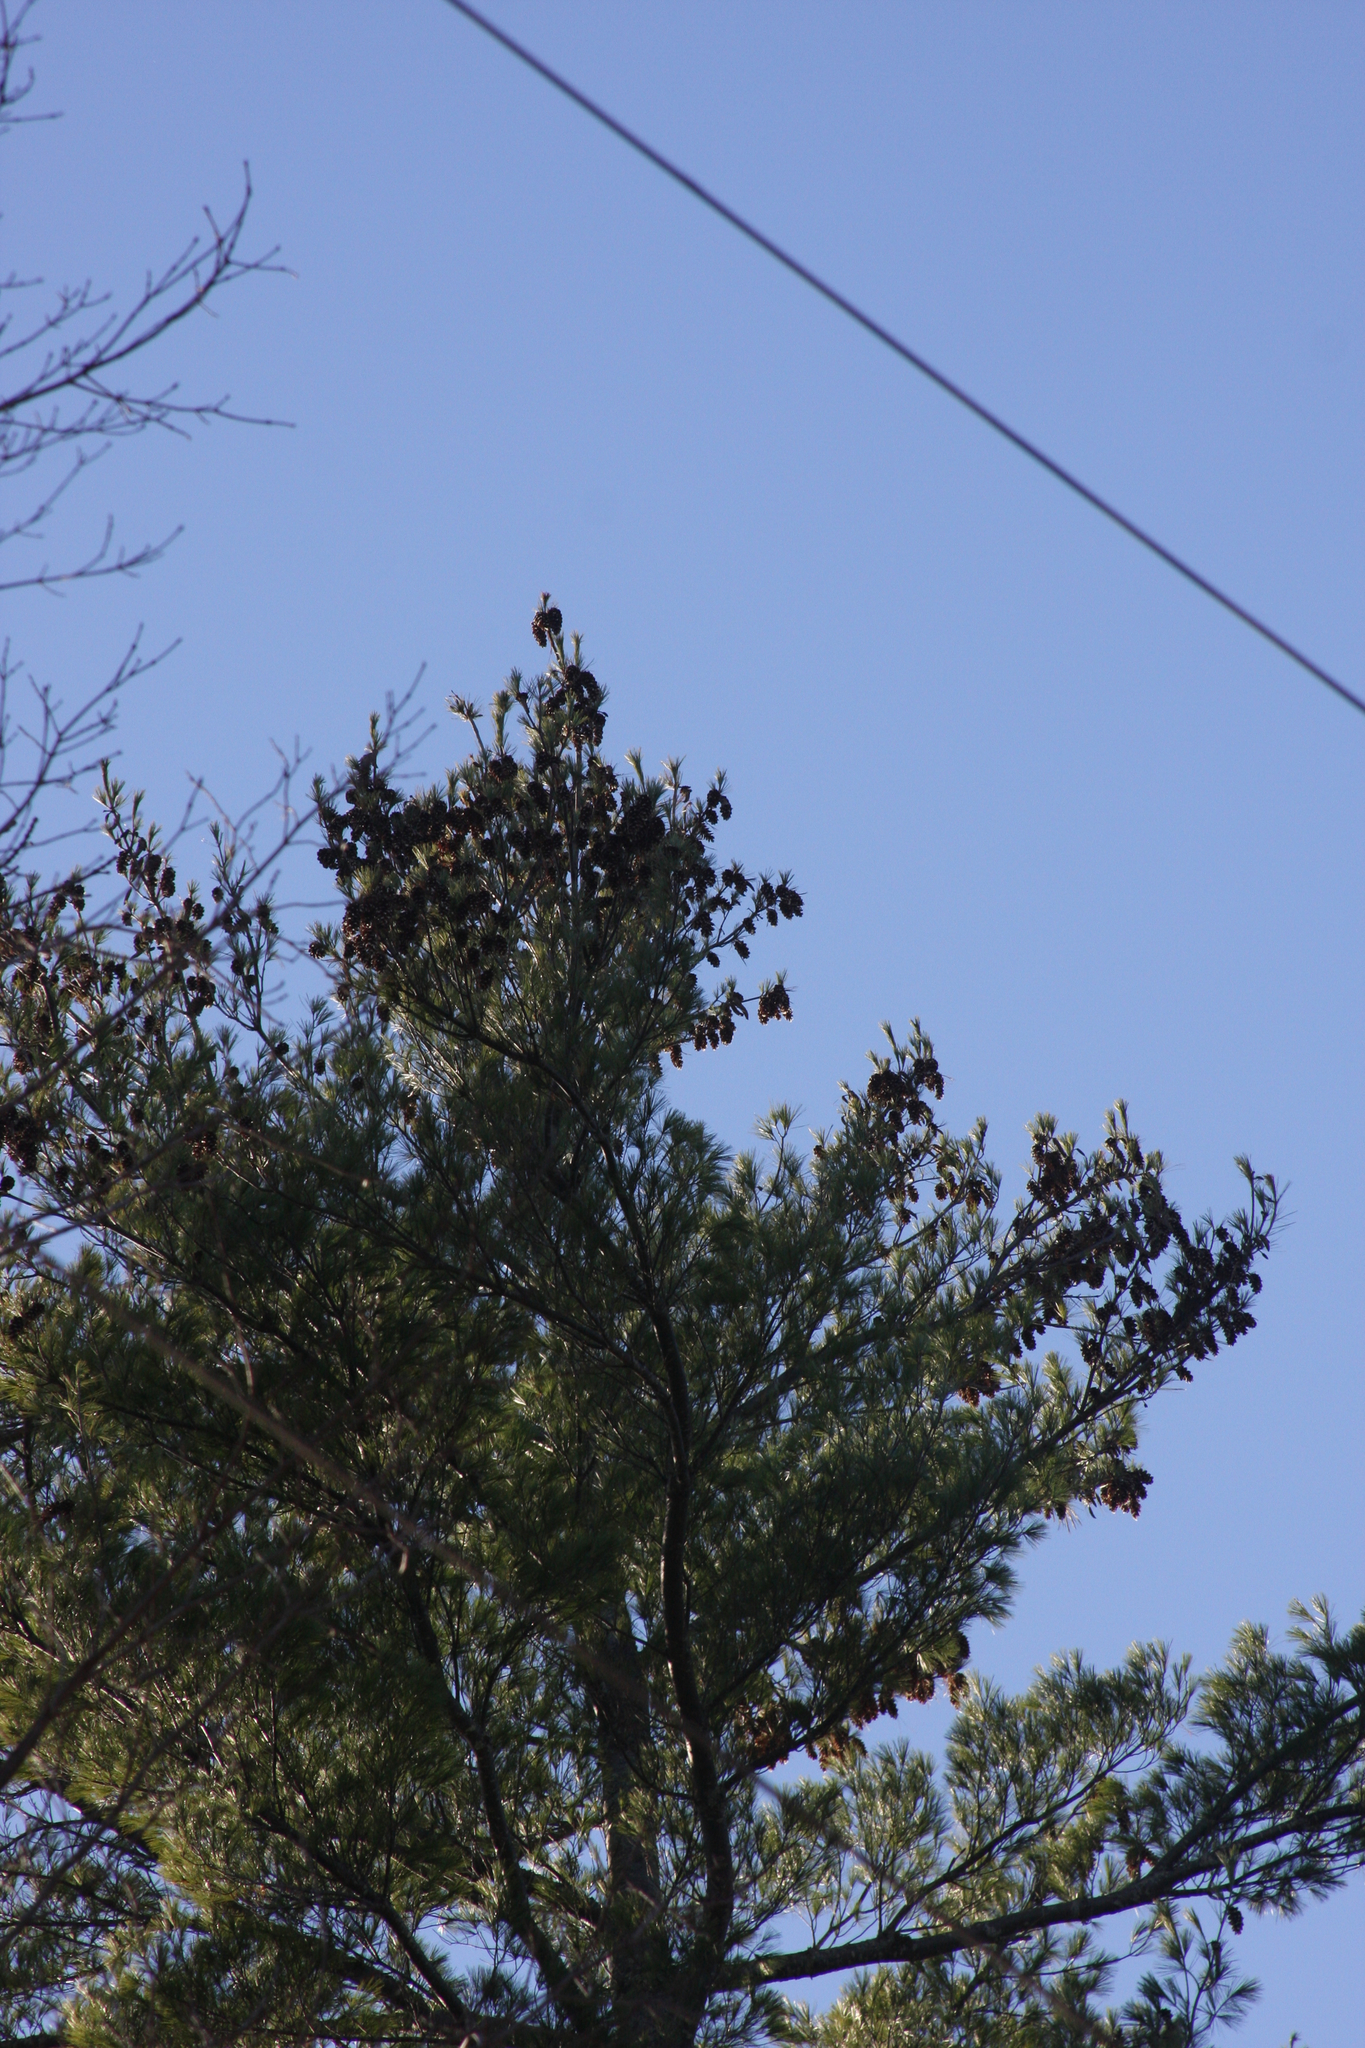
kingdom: Plantae
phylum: Tracheophyta
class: Pinopsida
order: Pinales
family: Pinaceae
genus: Pinus
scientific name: Pinus strobus
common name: Weymouth pine
